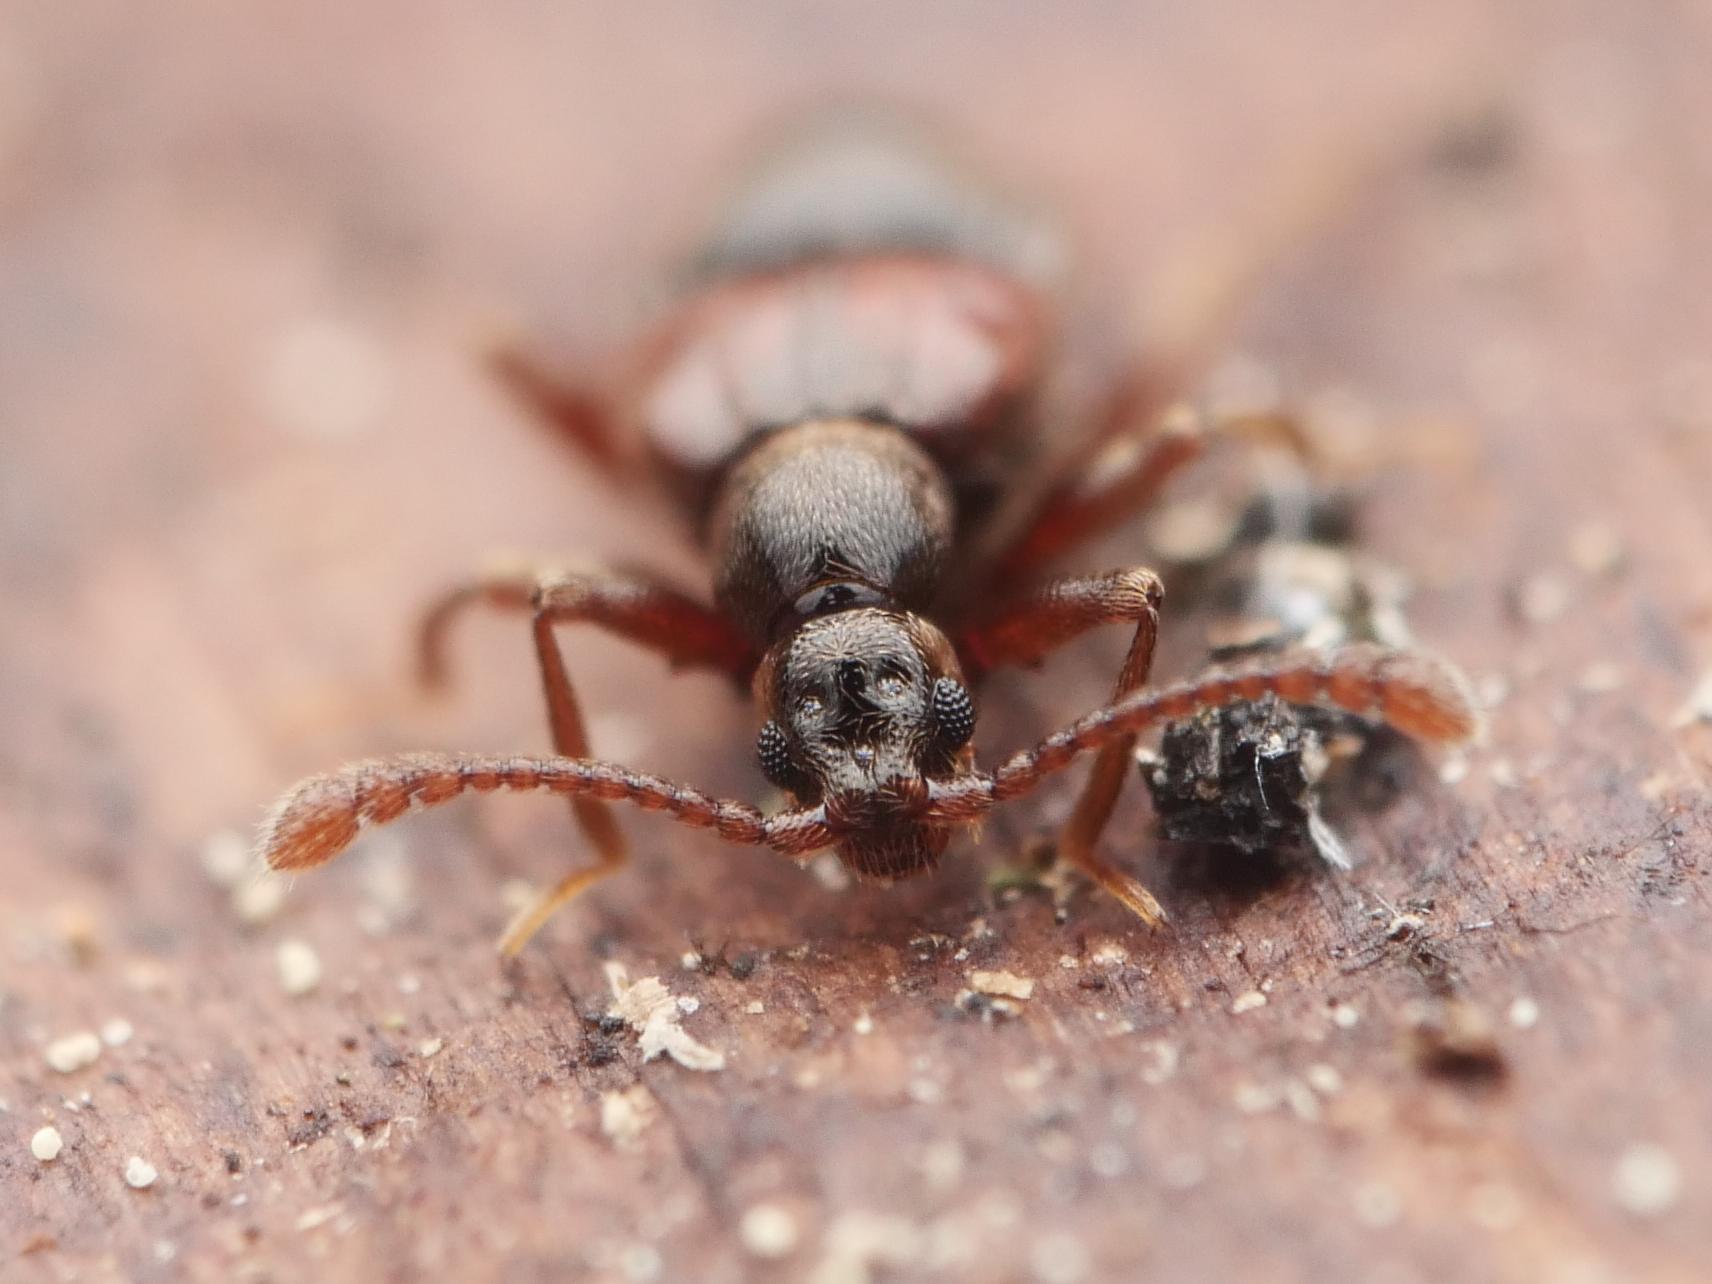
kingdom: Animalia
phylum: Arthropoda
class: Insecta
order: Coleoptera
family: Staphylinidae
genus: Tyrus
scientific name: Tyrus mucronatus
